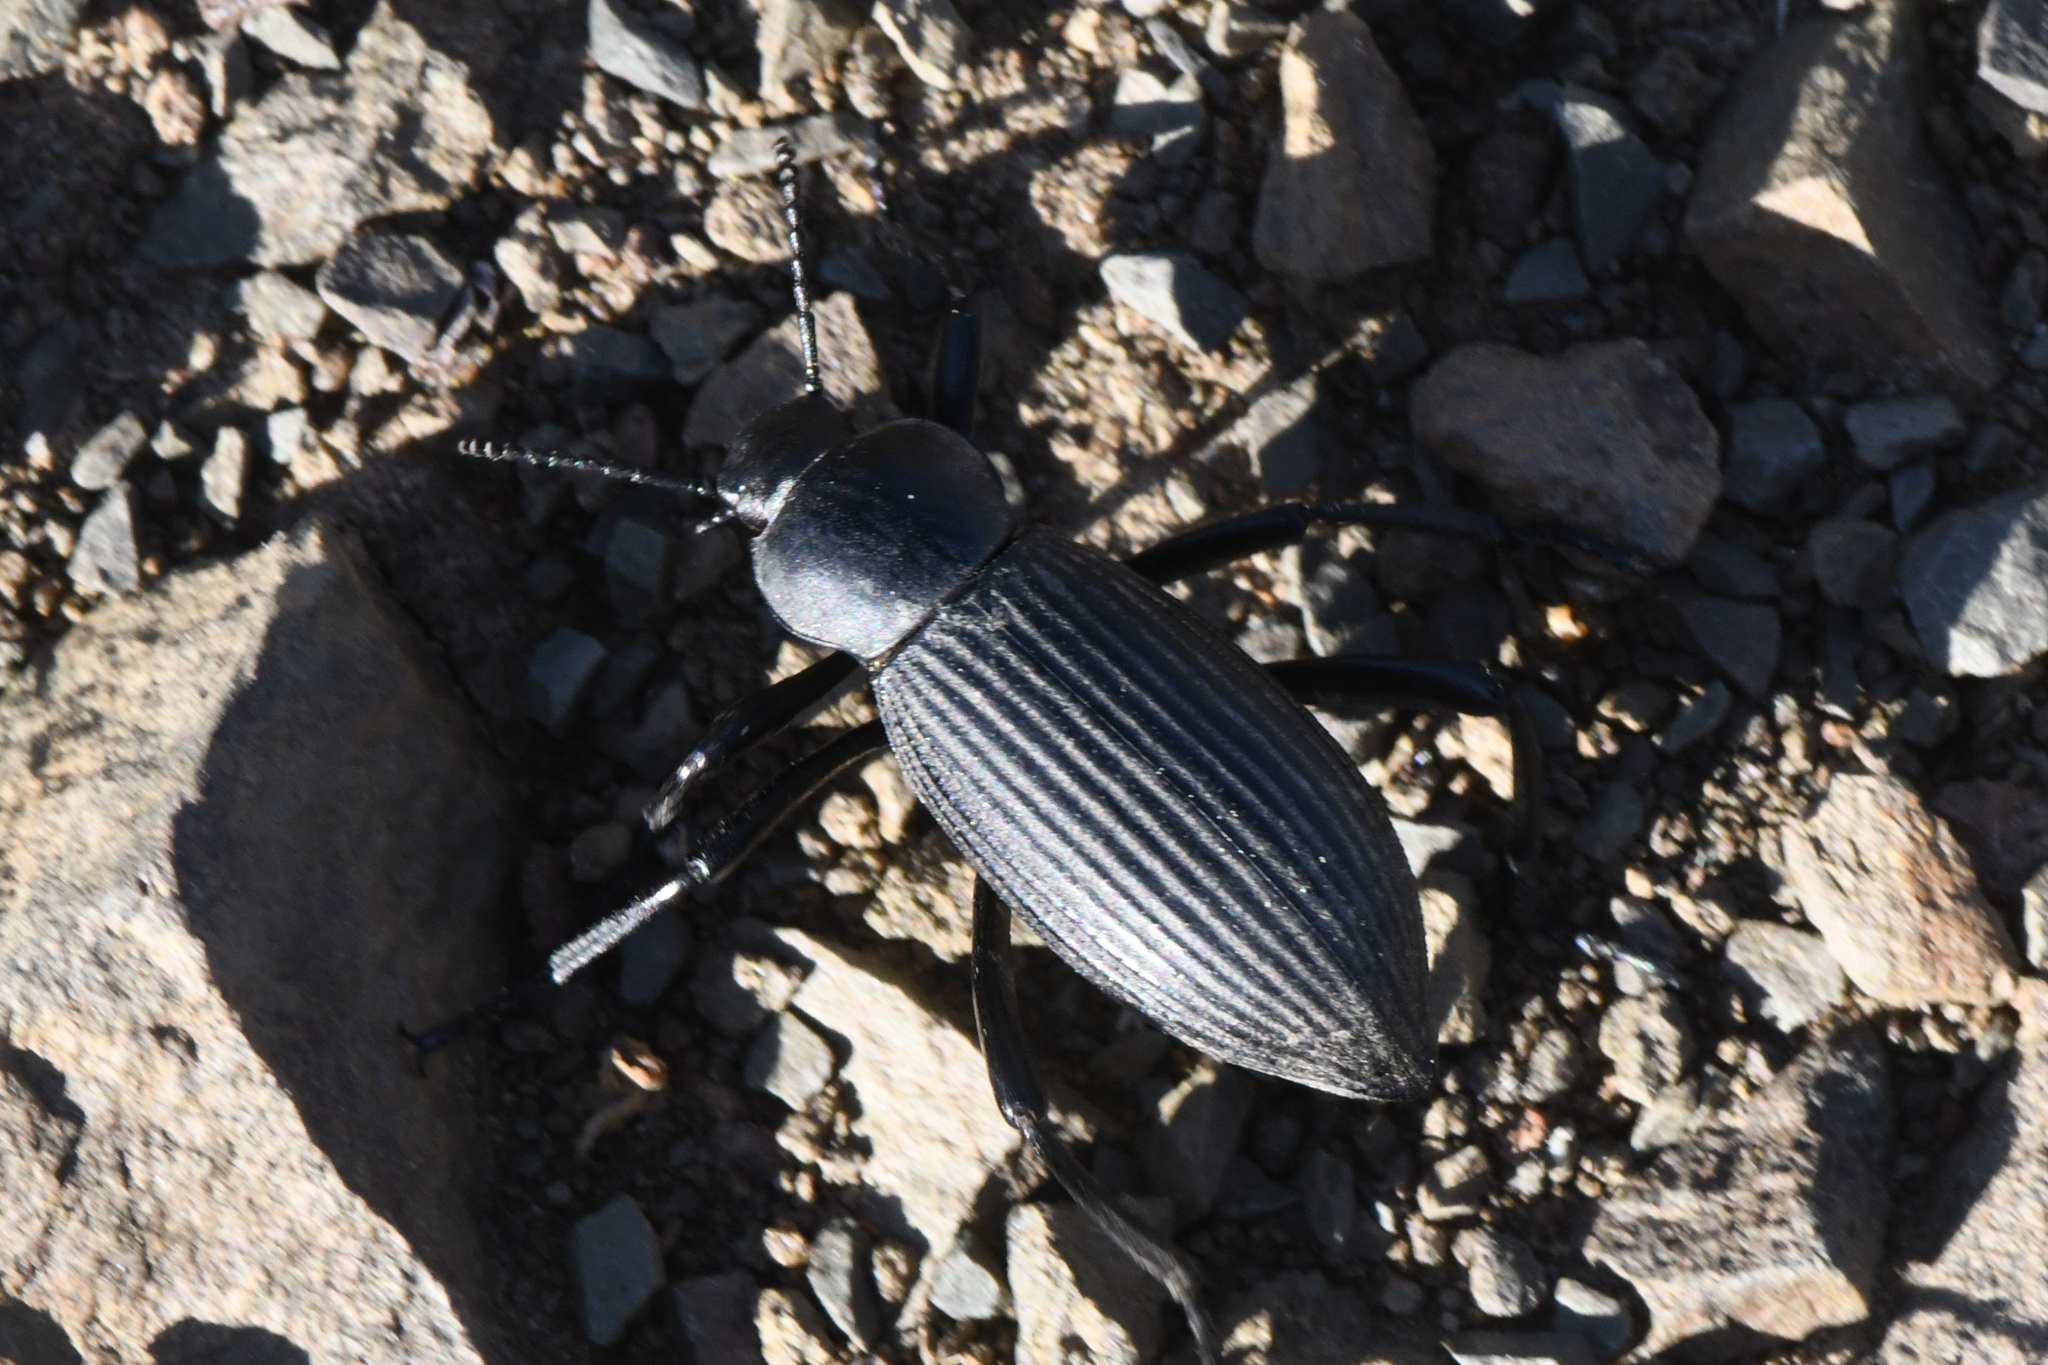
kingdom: Animalia
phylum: Arthropoda
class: Insecta
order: Coleoptera
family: Tenebrionidae
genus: Eleodes
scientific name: Eleodes hispilabris
